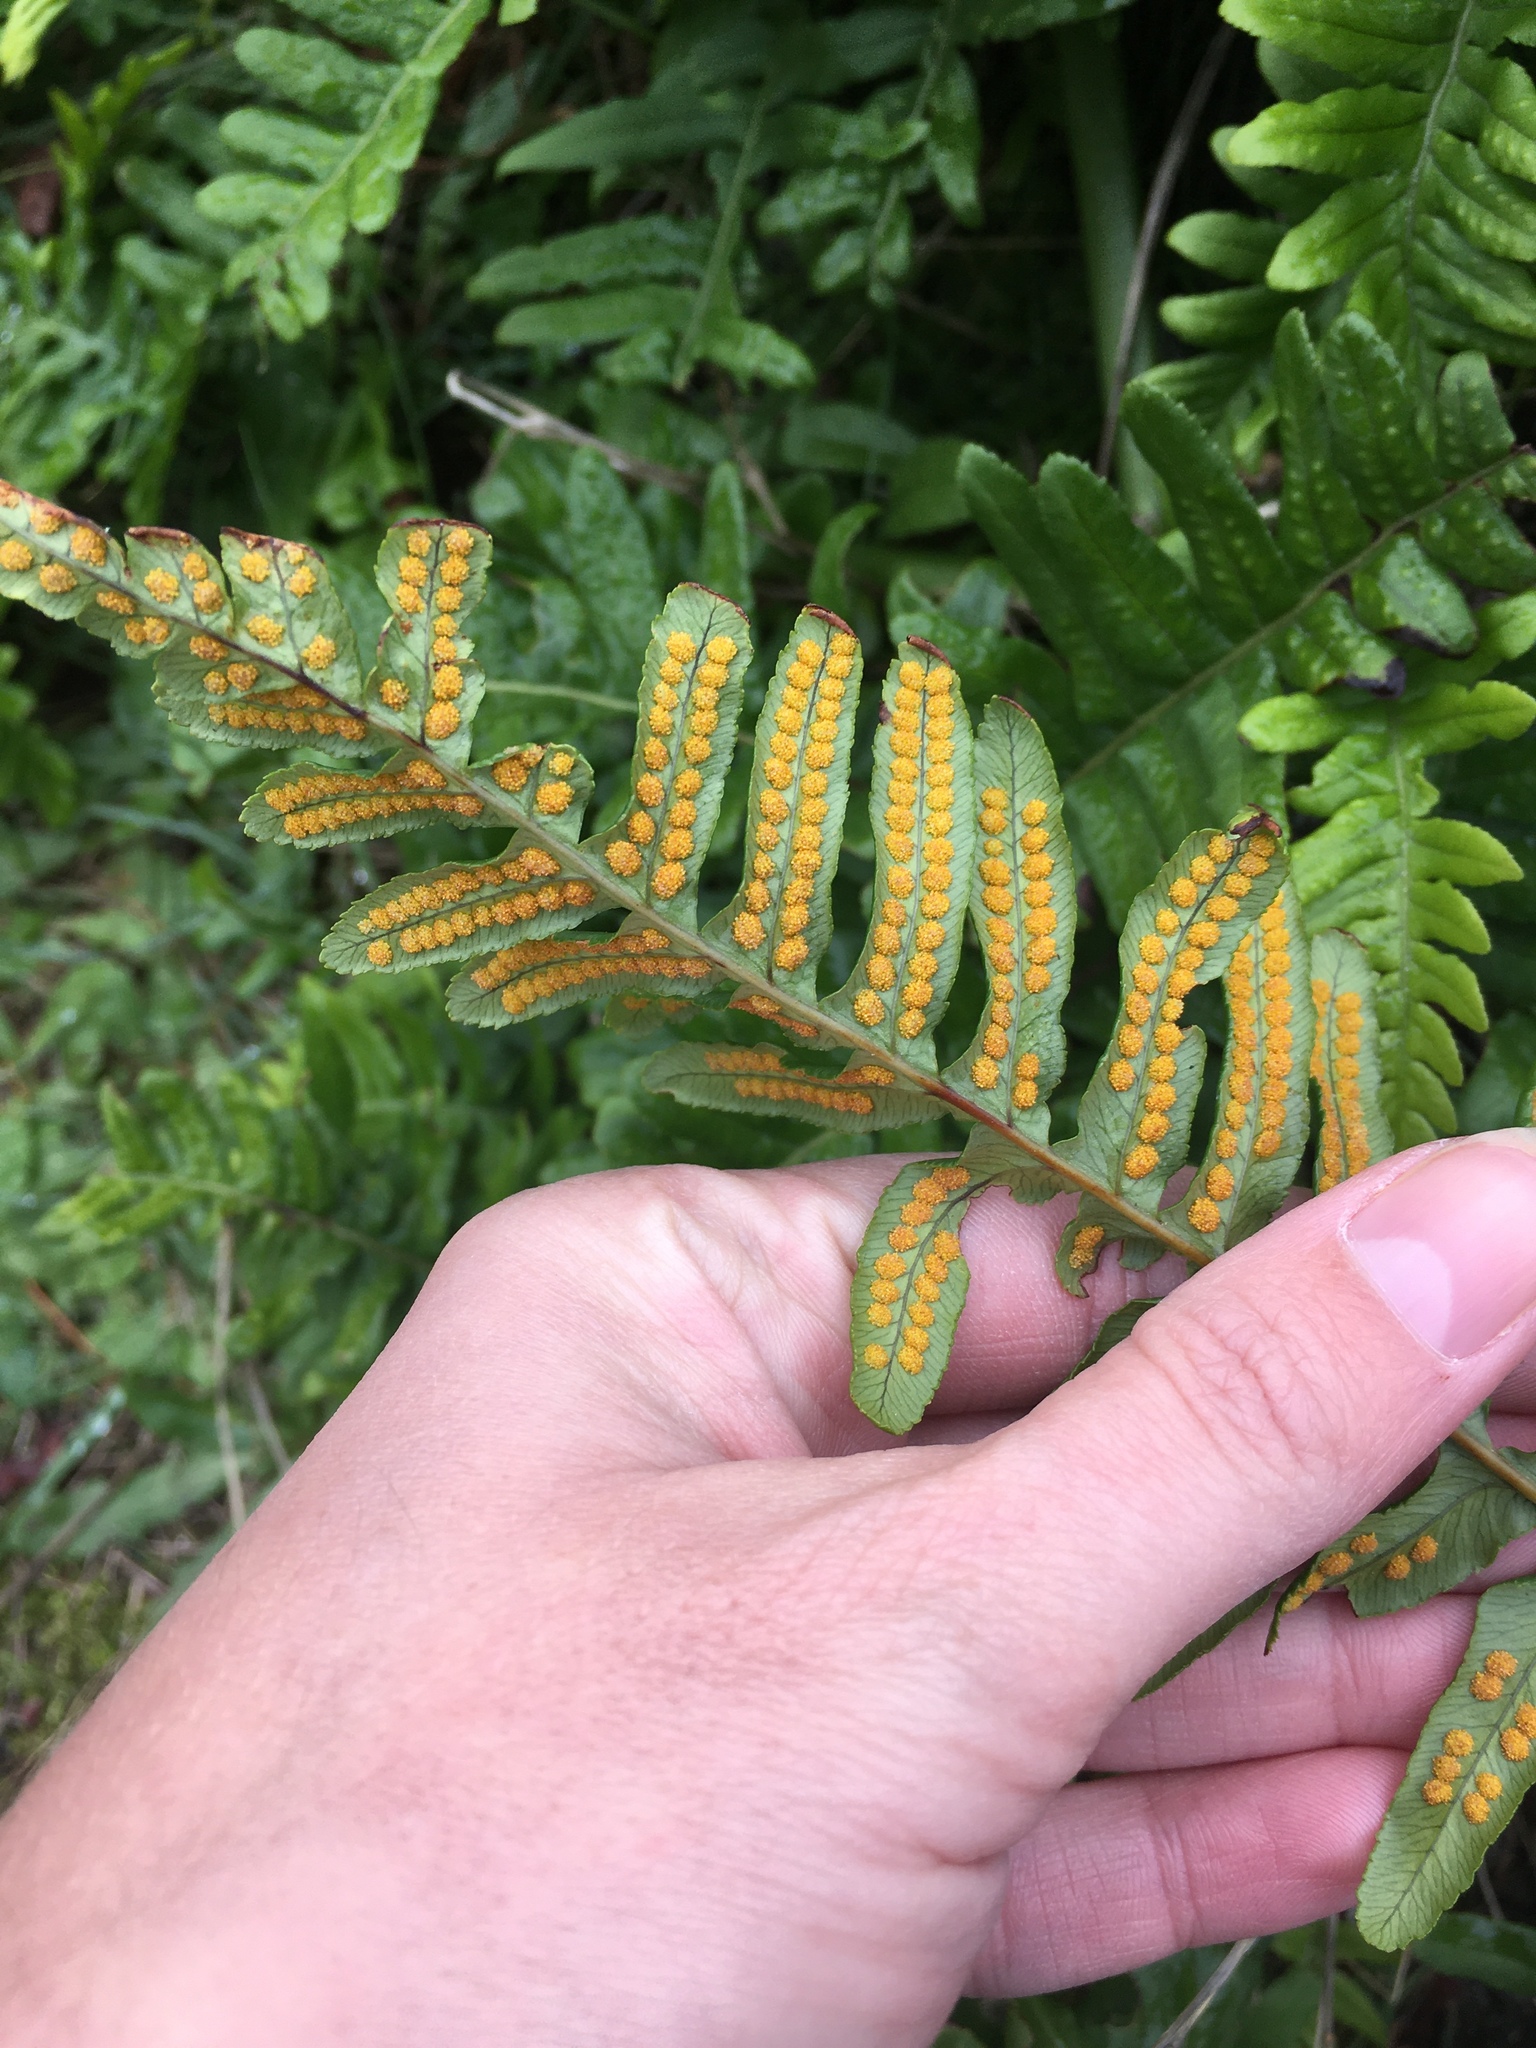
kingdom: Plantae
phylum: Tracheophyta
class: Polypodiopsida
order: Polypodiales
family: Polypodiaceae
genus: Polypodium
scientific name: Polypodium glycyrrhiza
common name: Licorice fern
